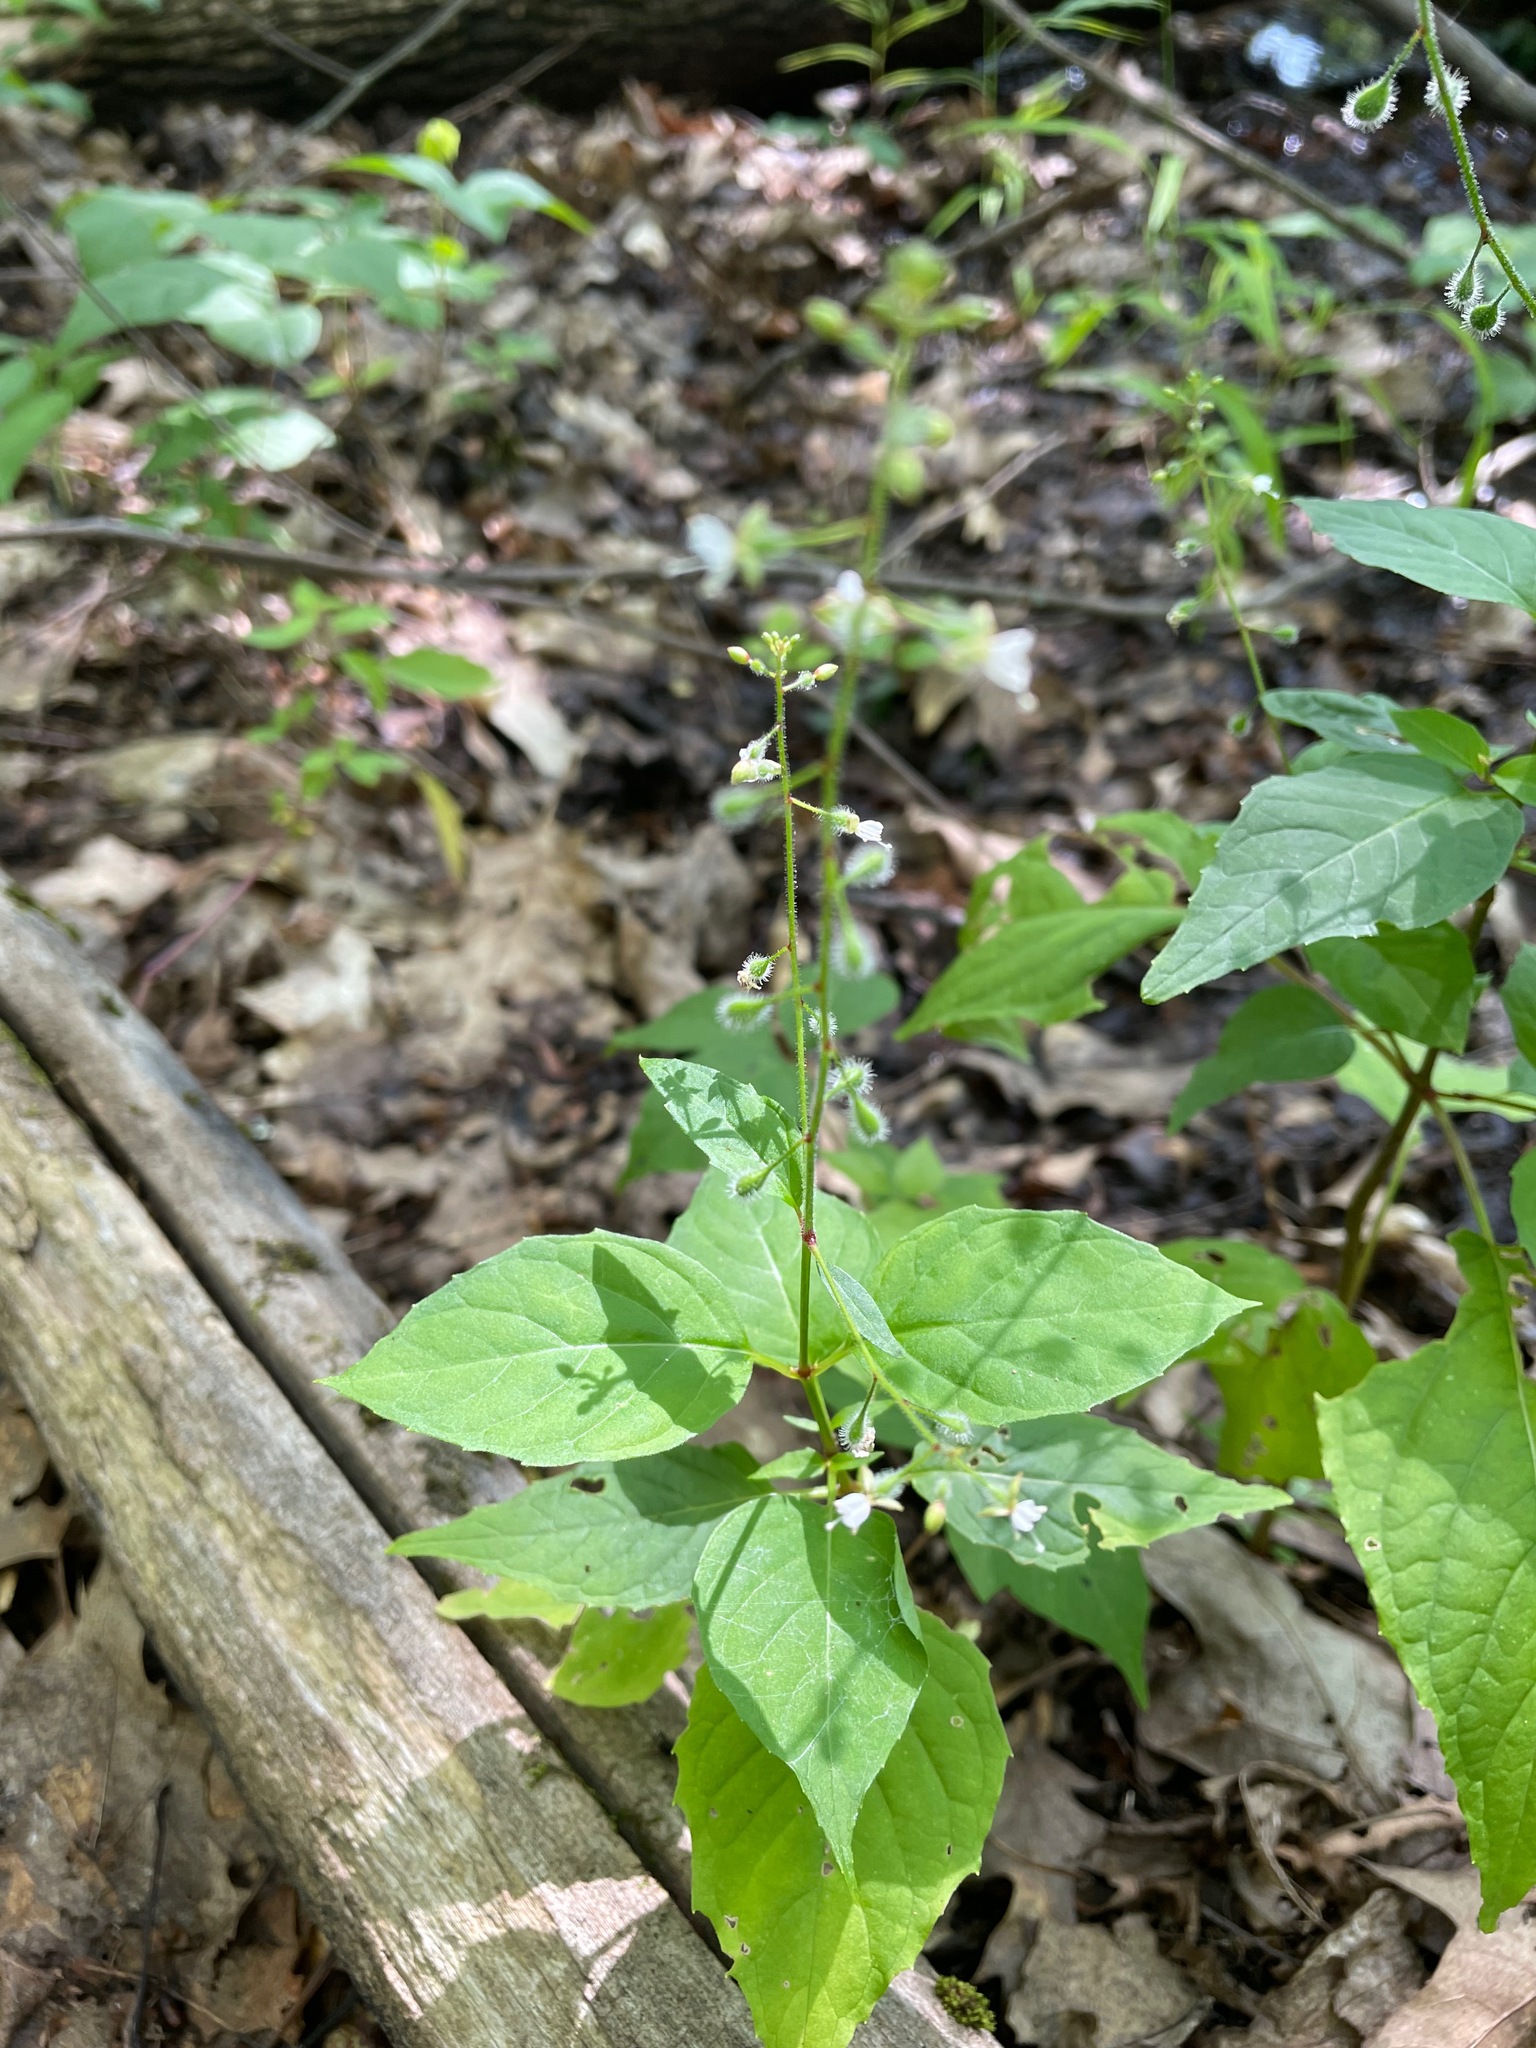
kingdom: Plantae
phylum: Tracheophyta
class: Magnoliopsida
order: Myrtales
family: Onagraceae
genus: Circaea
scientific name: Circaea canadensis
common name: Broad-leaved enchanter's nightshade
